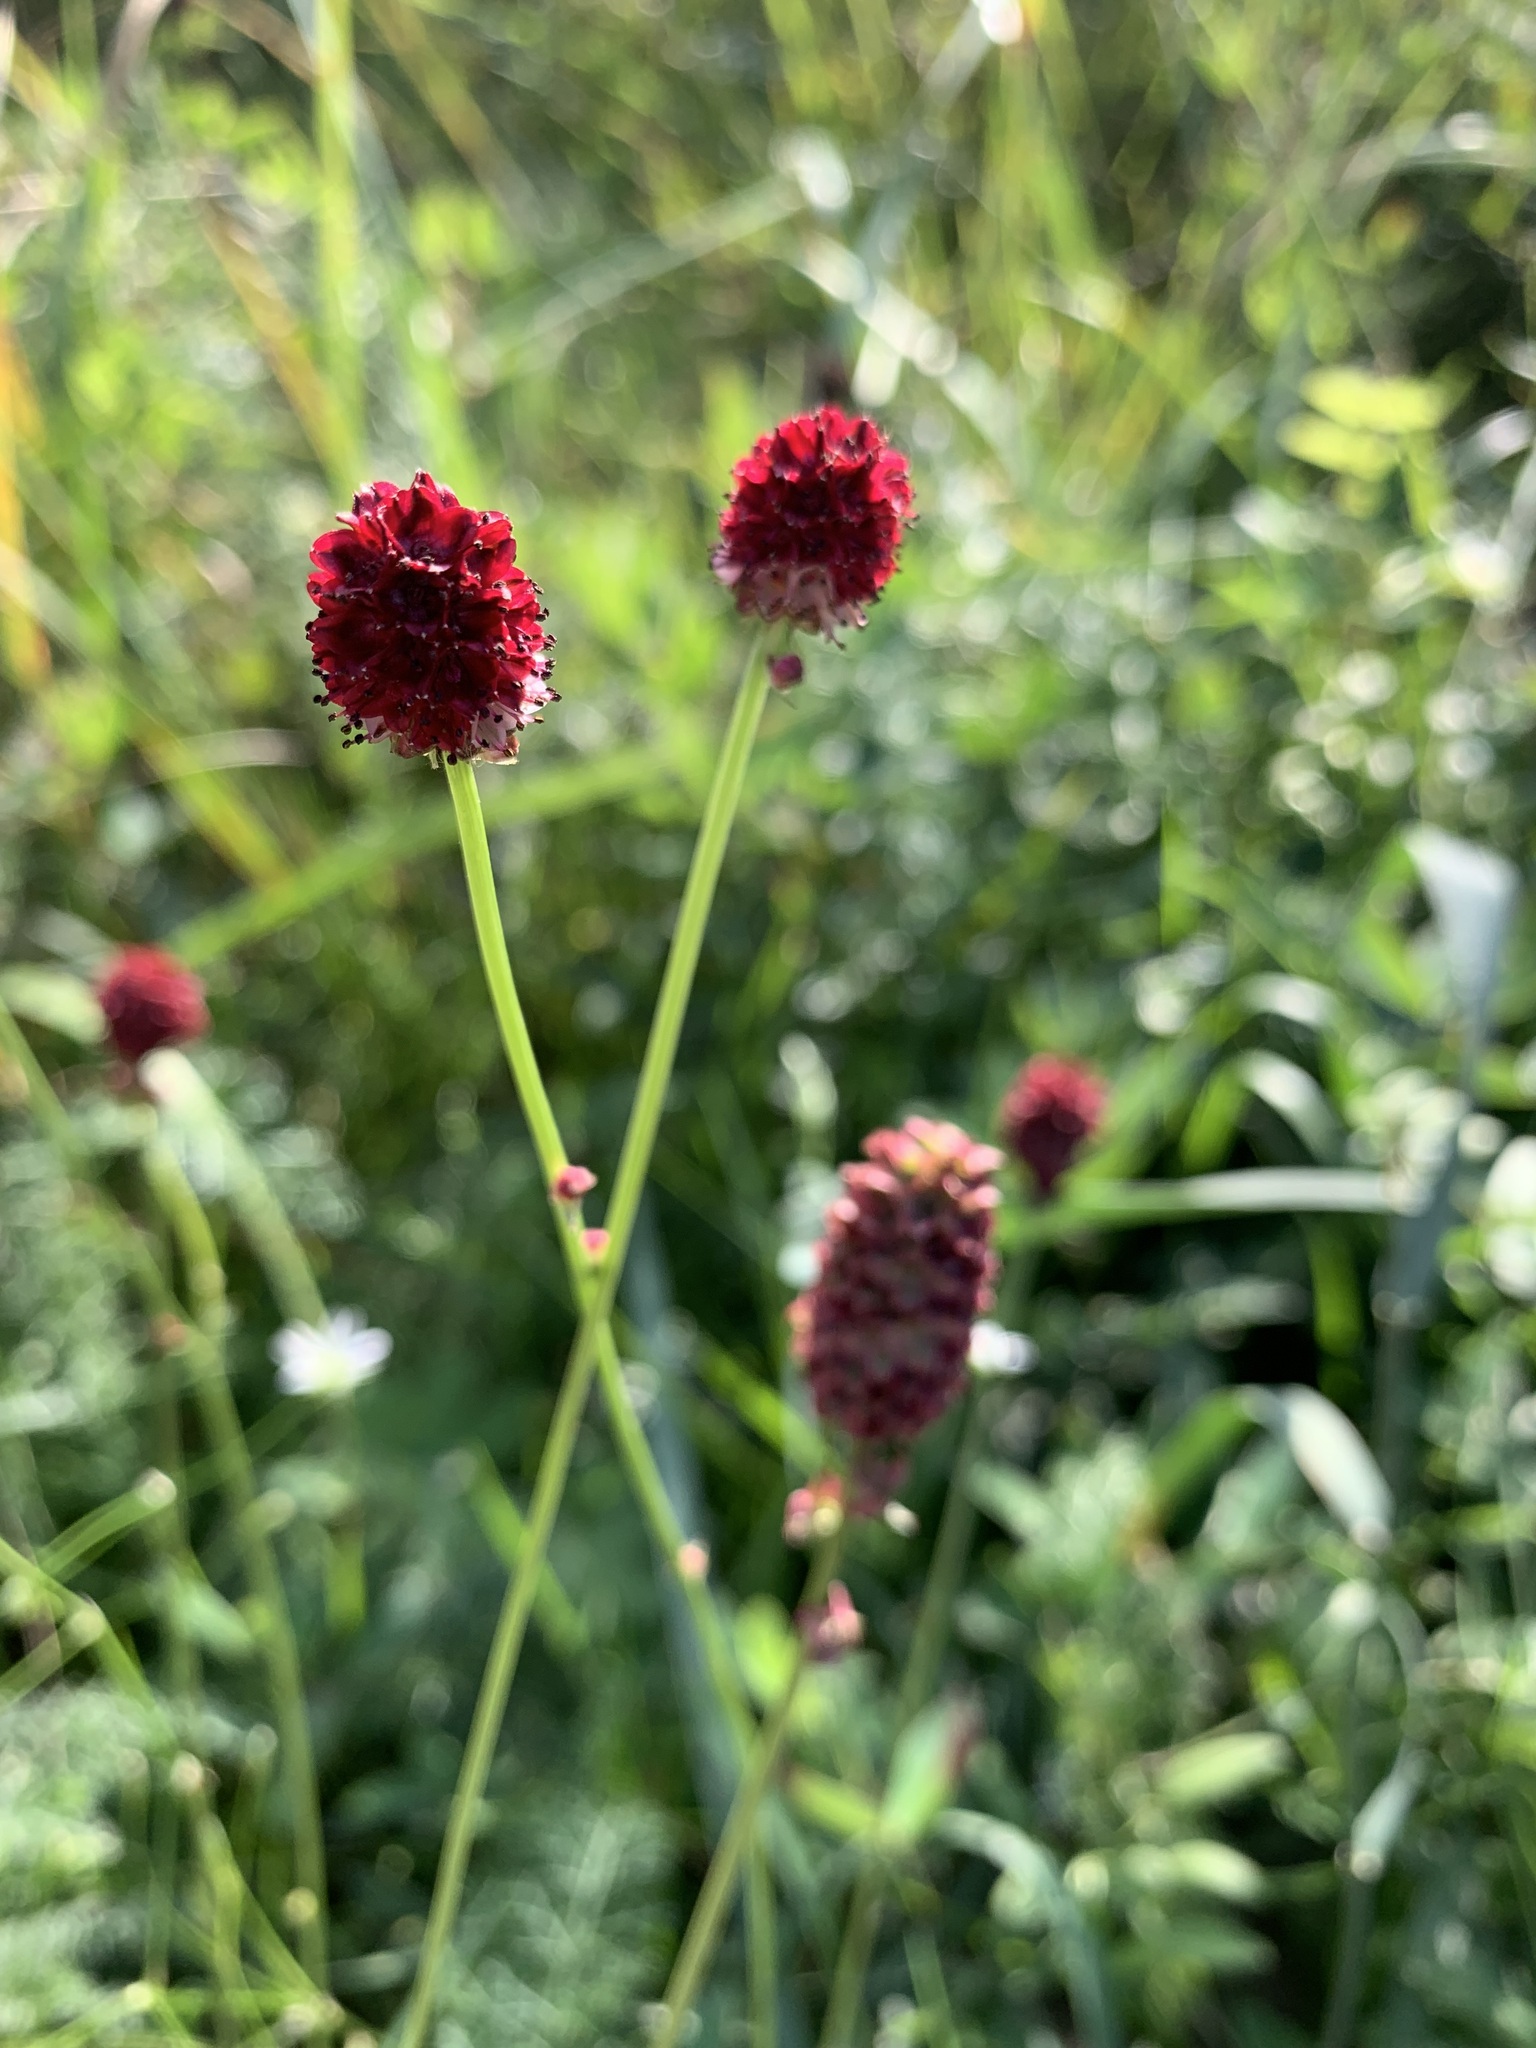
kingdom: Plantae
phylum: Tracheophyta
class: Magnoliopsida
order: Rosales
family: Rosaceae
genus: Sanguisorba
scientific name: Sanguisorba officinalis
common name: Great burnet
